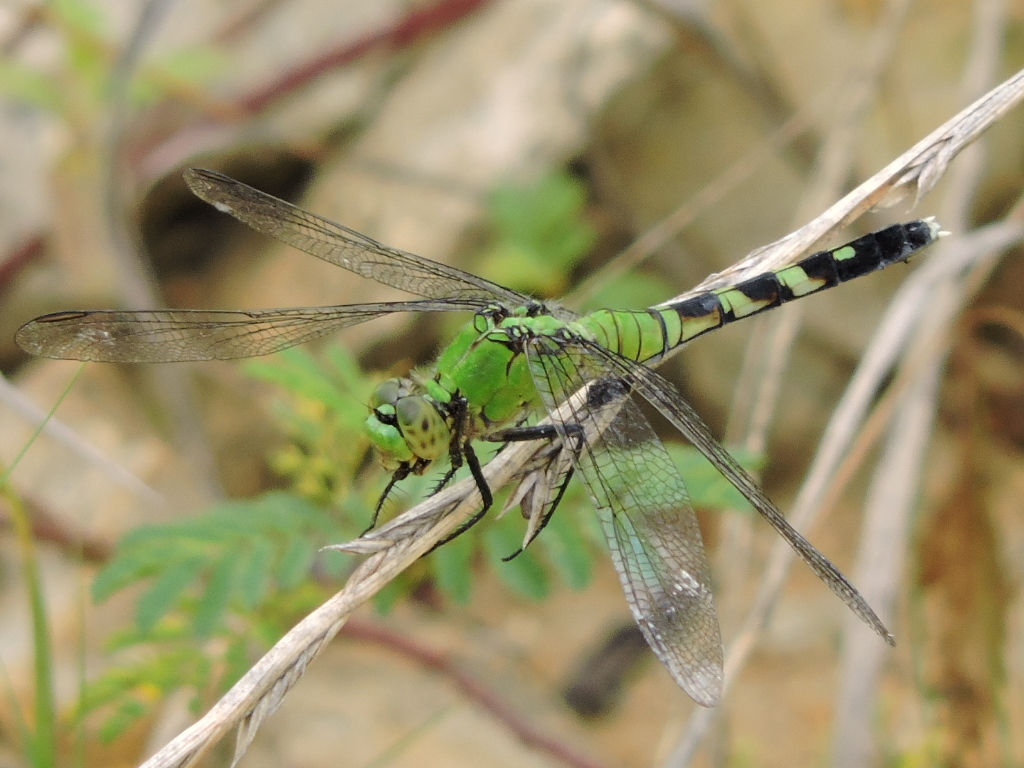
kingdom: Animalia
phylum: Arthropoda
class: Insecta
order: Odonata
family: Libellulidae
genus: Erythemis
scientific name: Erythemis simplicicollis
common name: Eastern pondhawk
